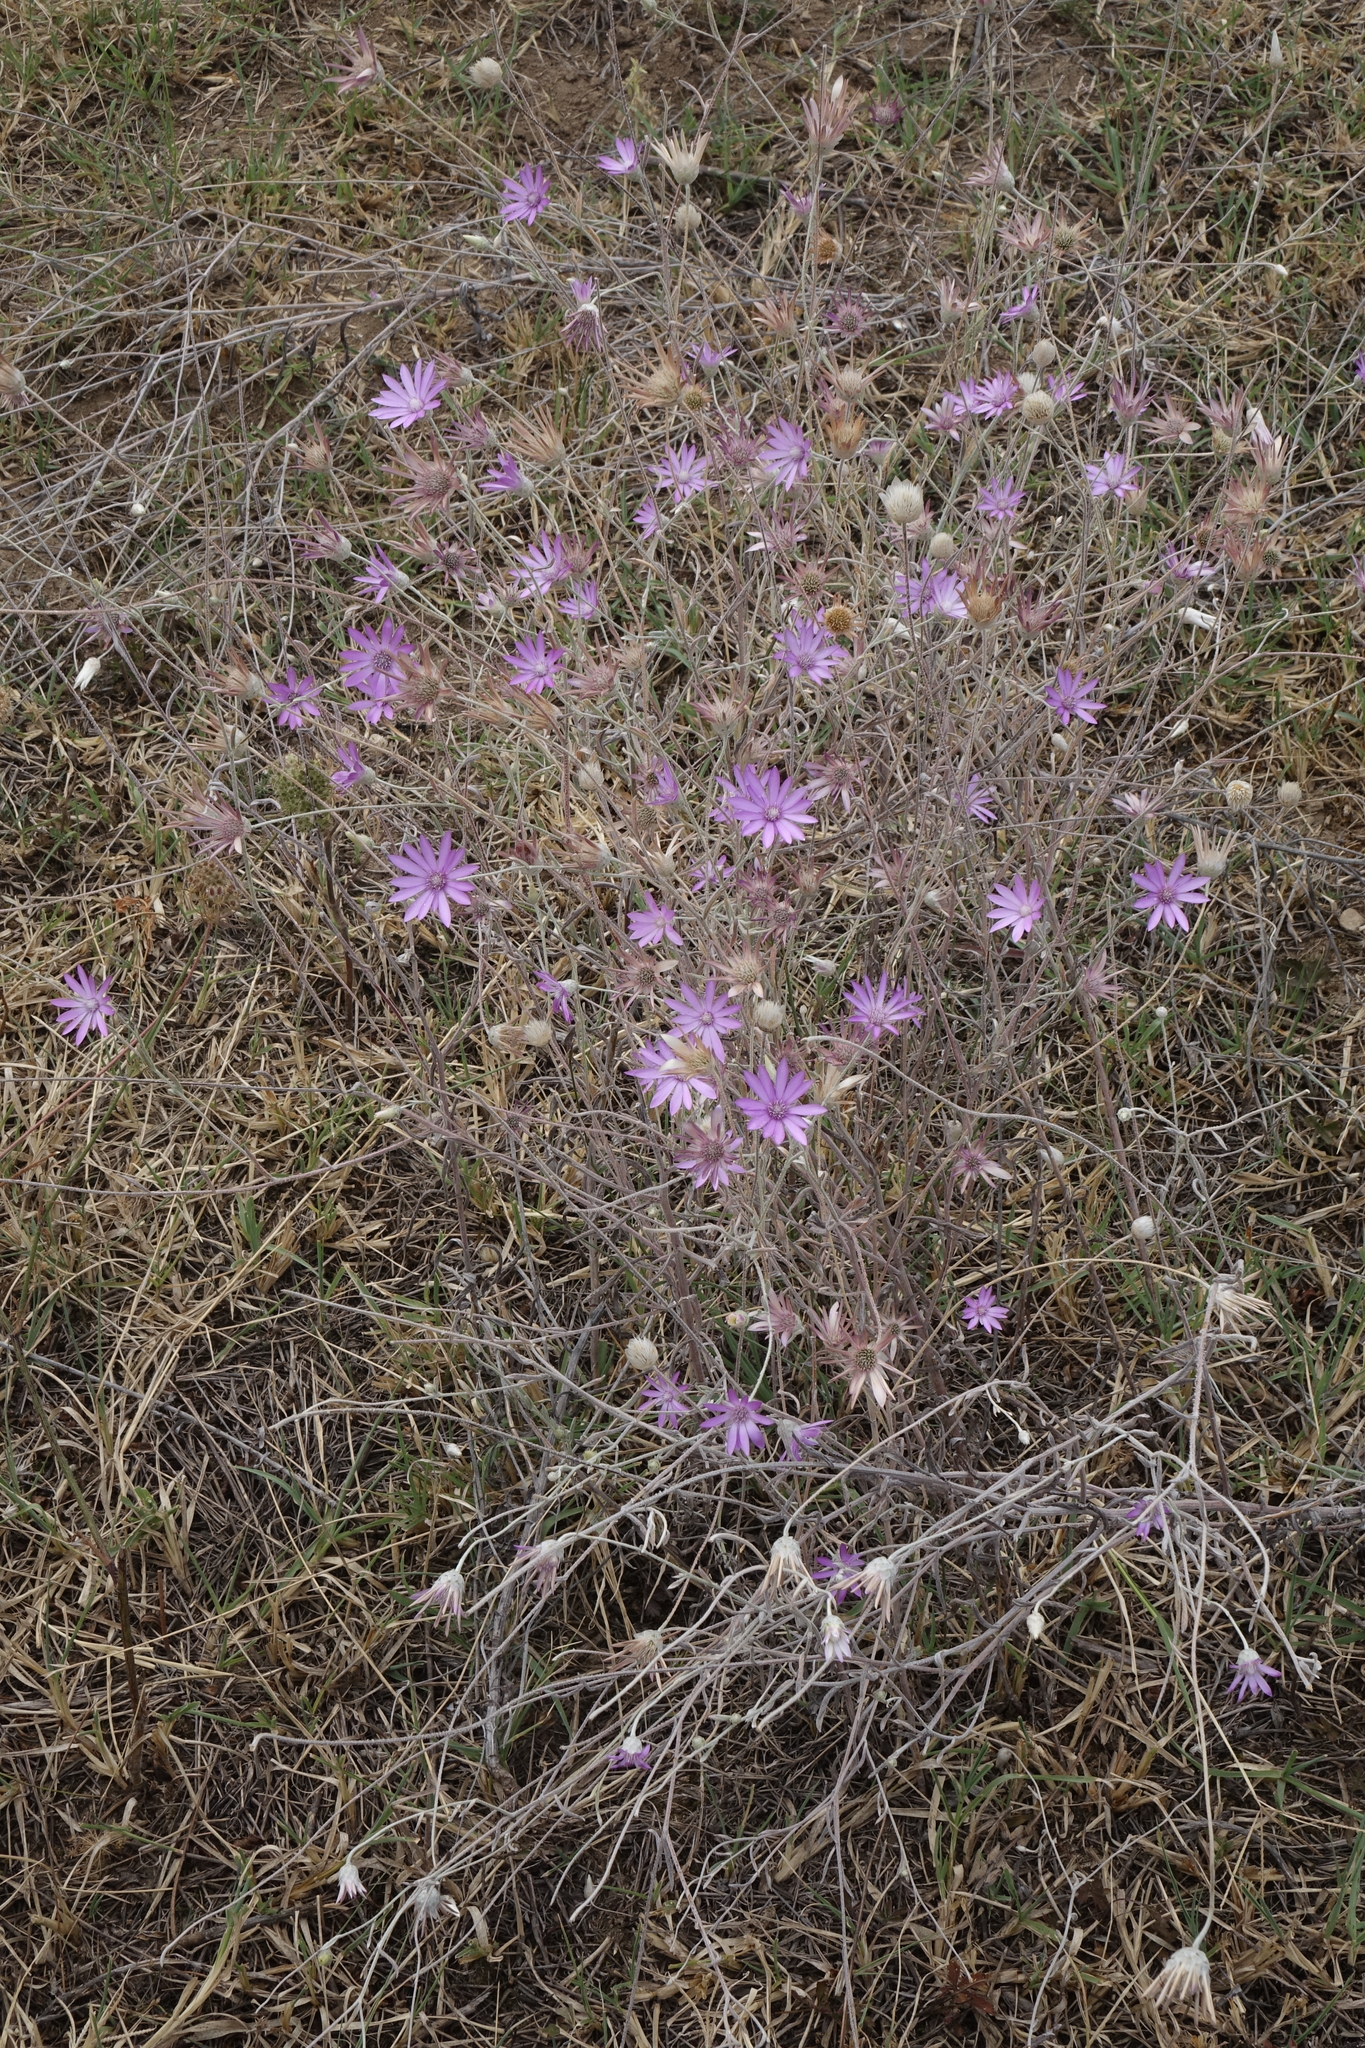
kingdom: Plantae
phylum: Tracheophyta
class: Magnoliopsida
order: Asterales
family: Asteraceae
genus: Xeranthemum
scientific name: Xeranthemum annuum
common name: Immortelle
